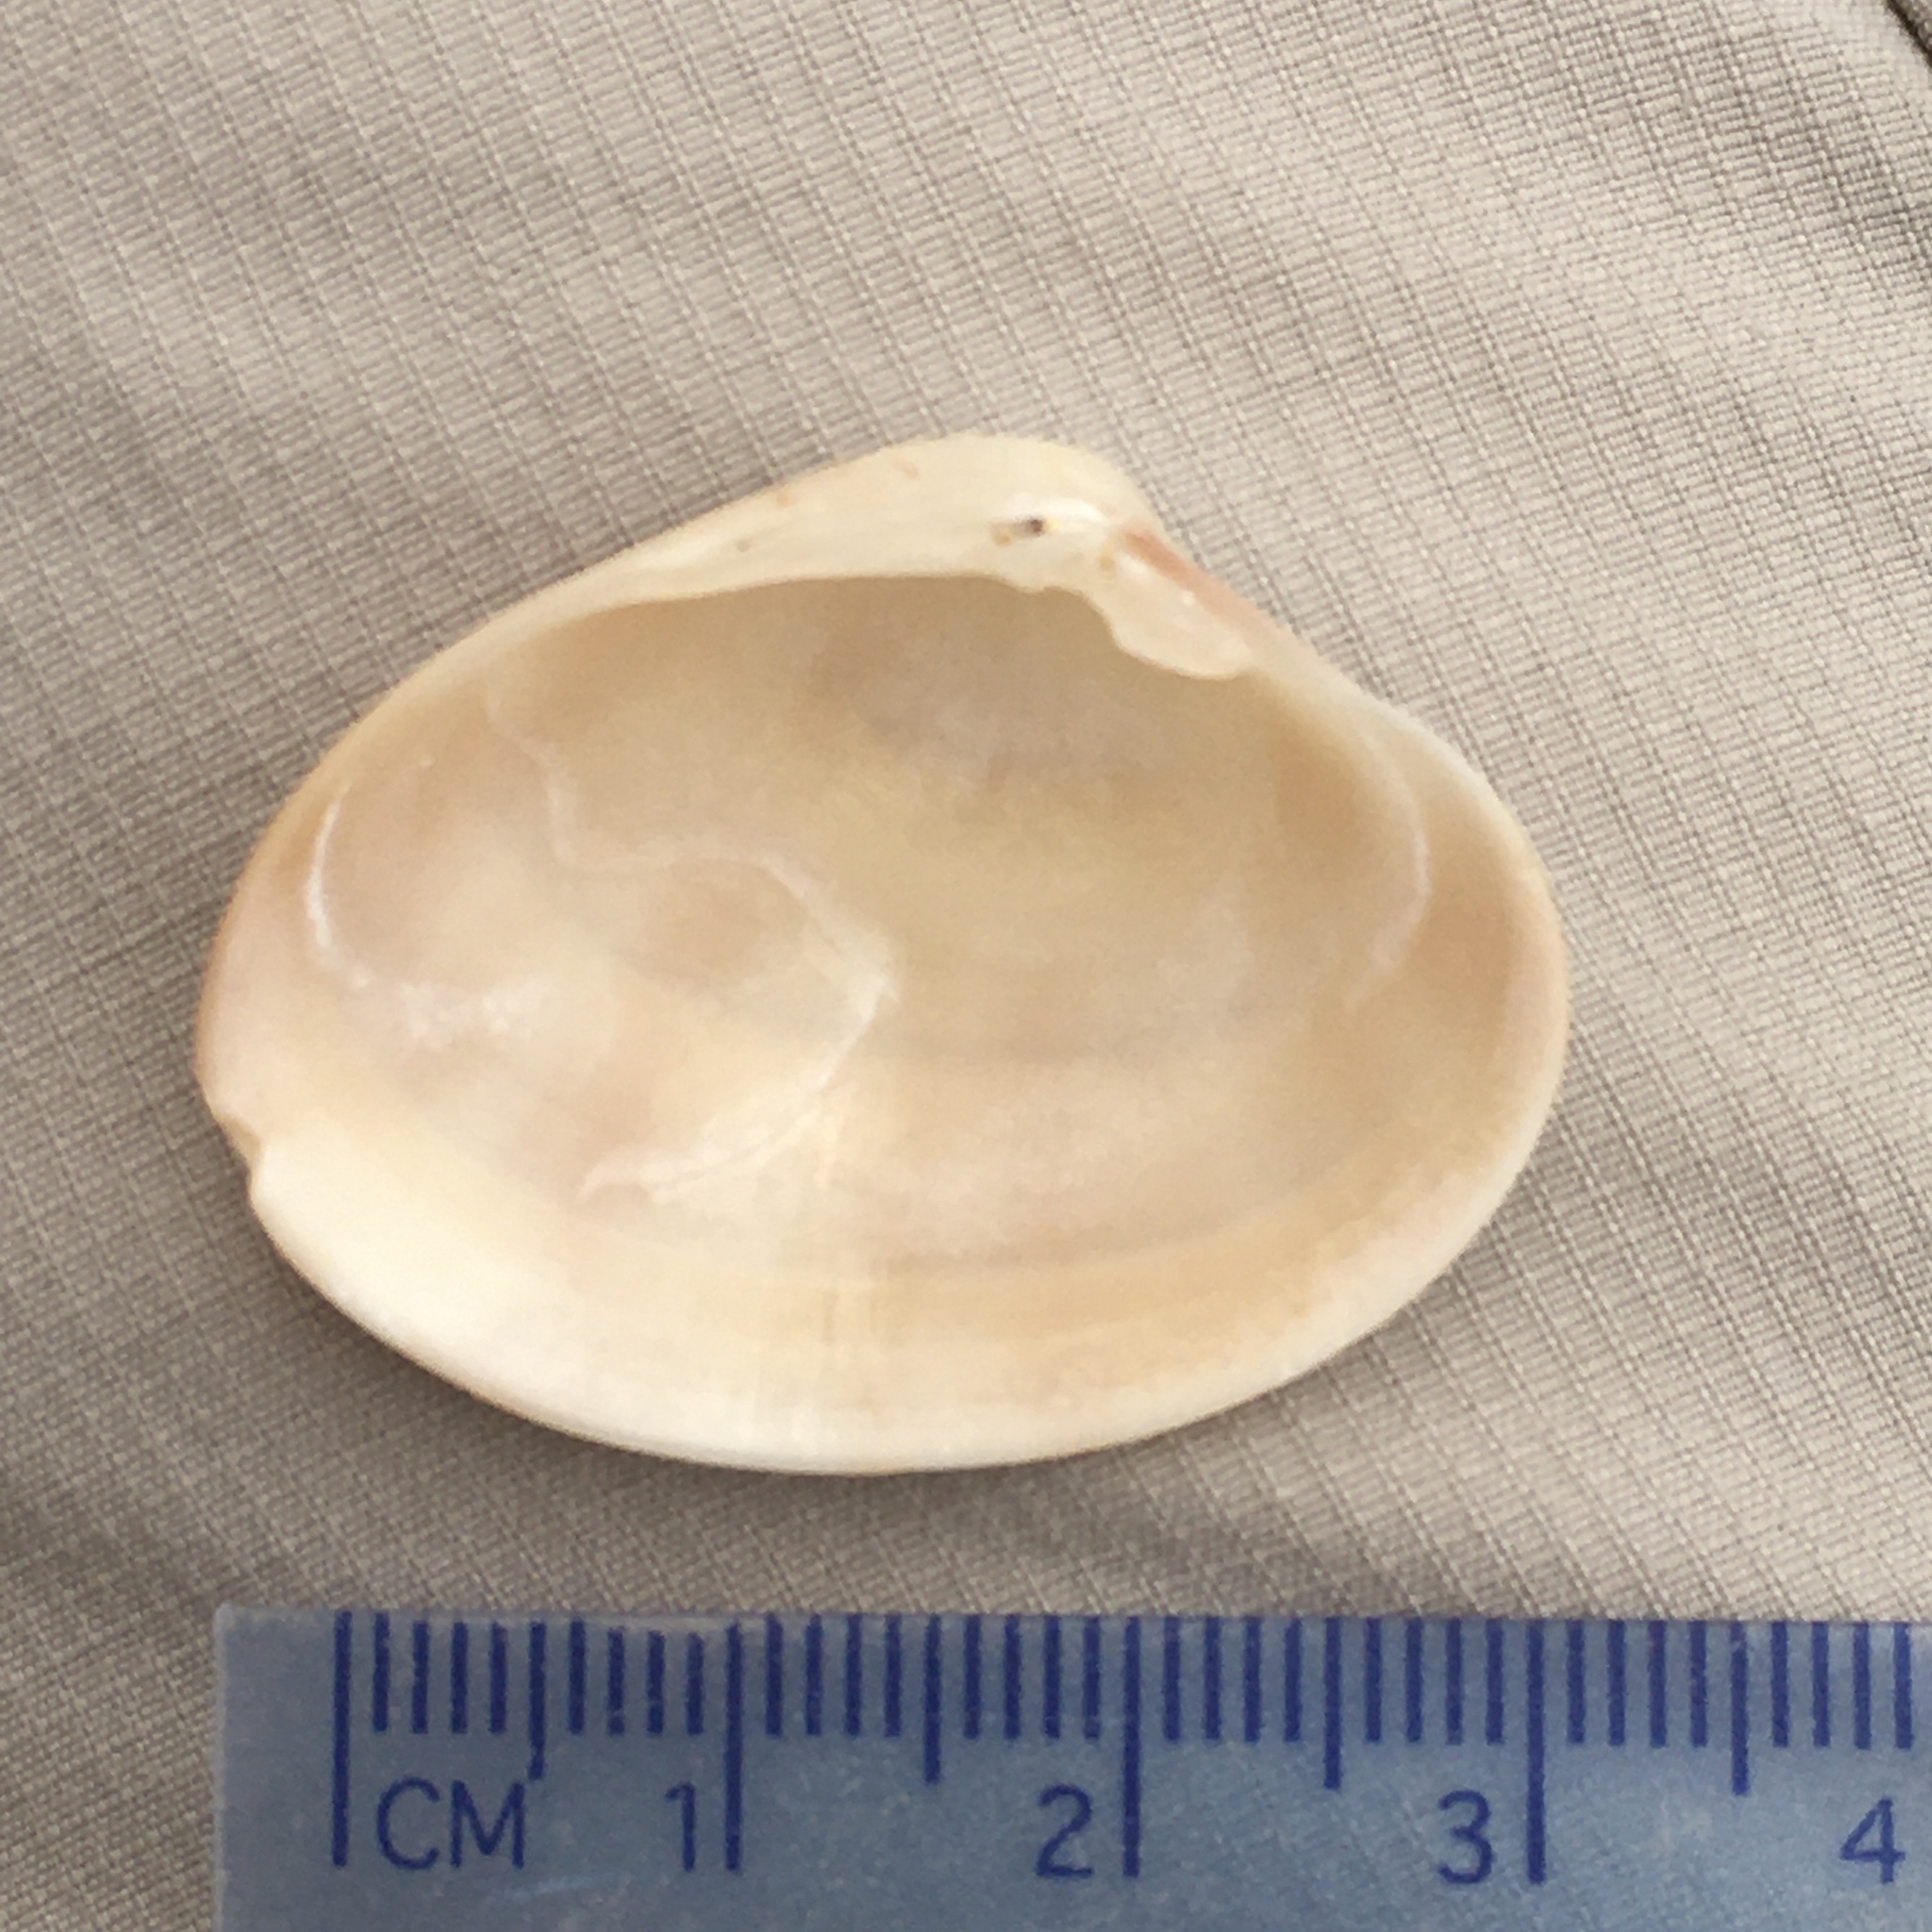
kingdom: Animalia
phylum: Mollusca
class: Bivalvia
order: Venerida
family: Veneridae
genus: Callista
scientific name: Callista chione
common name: Brown venus
